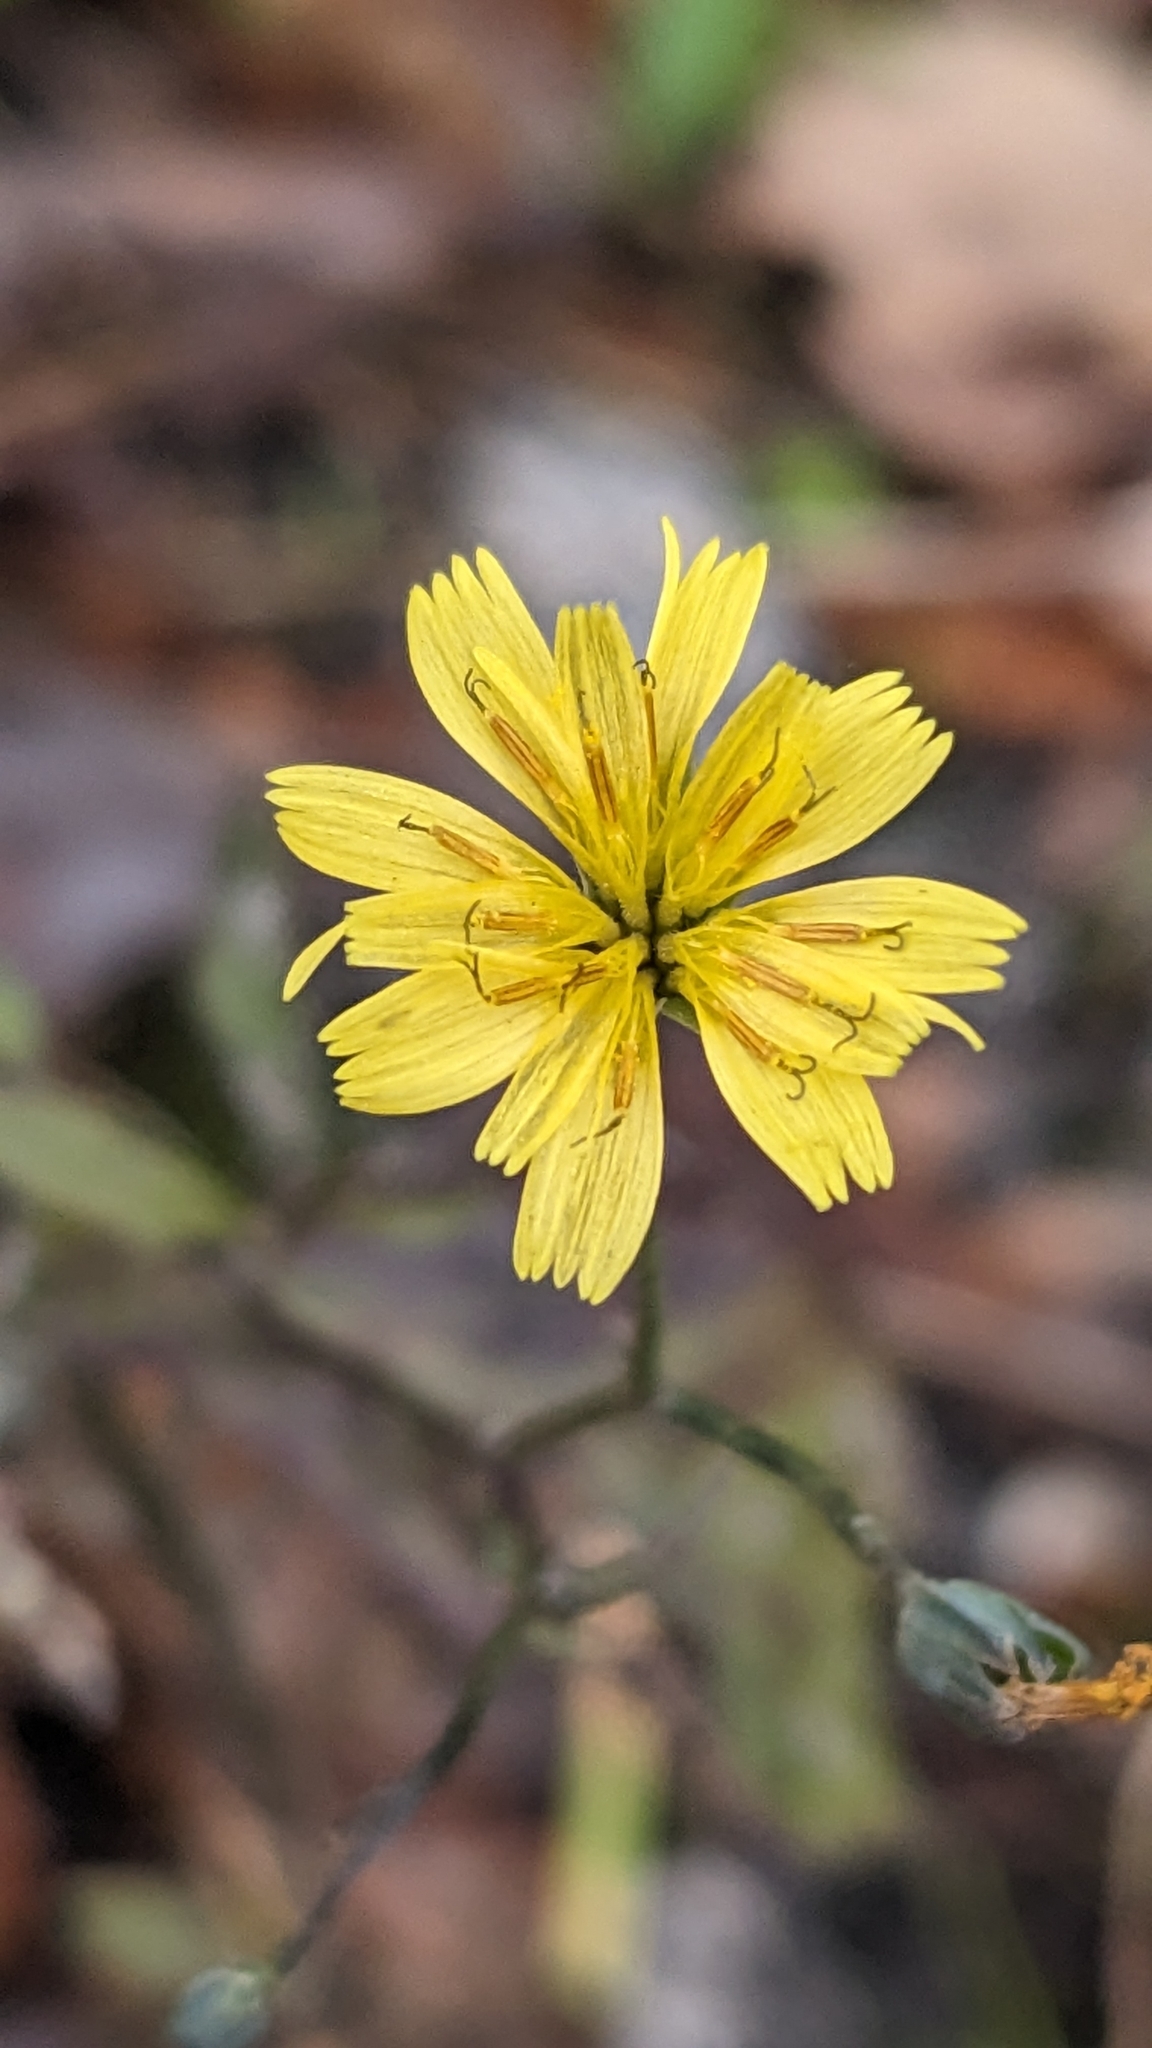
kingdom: Plantae
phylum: Tracheophyta
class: Magnoliopsida
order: Asterales
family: Asteraceae
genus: Lapsana
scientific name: Lapsana communis
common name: Nipplewort
